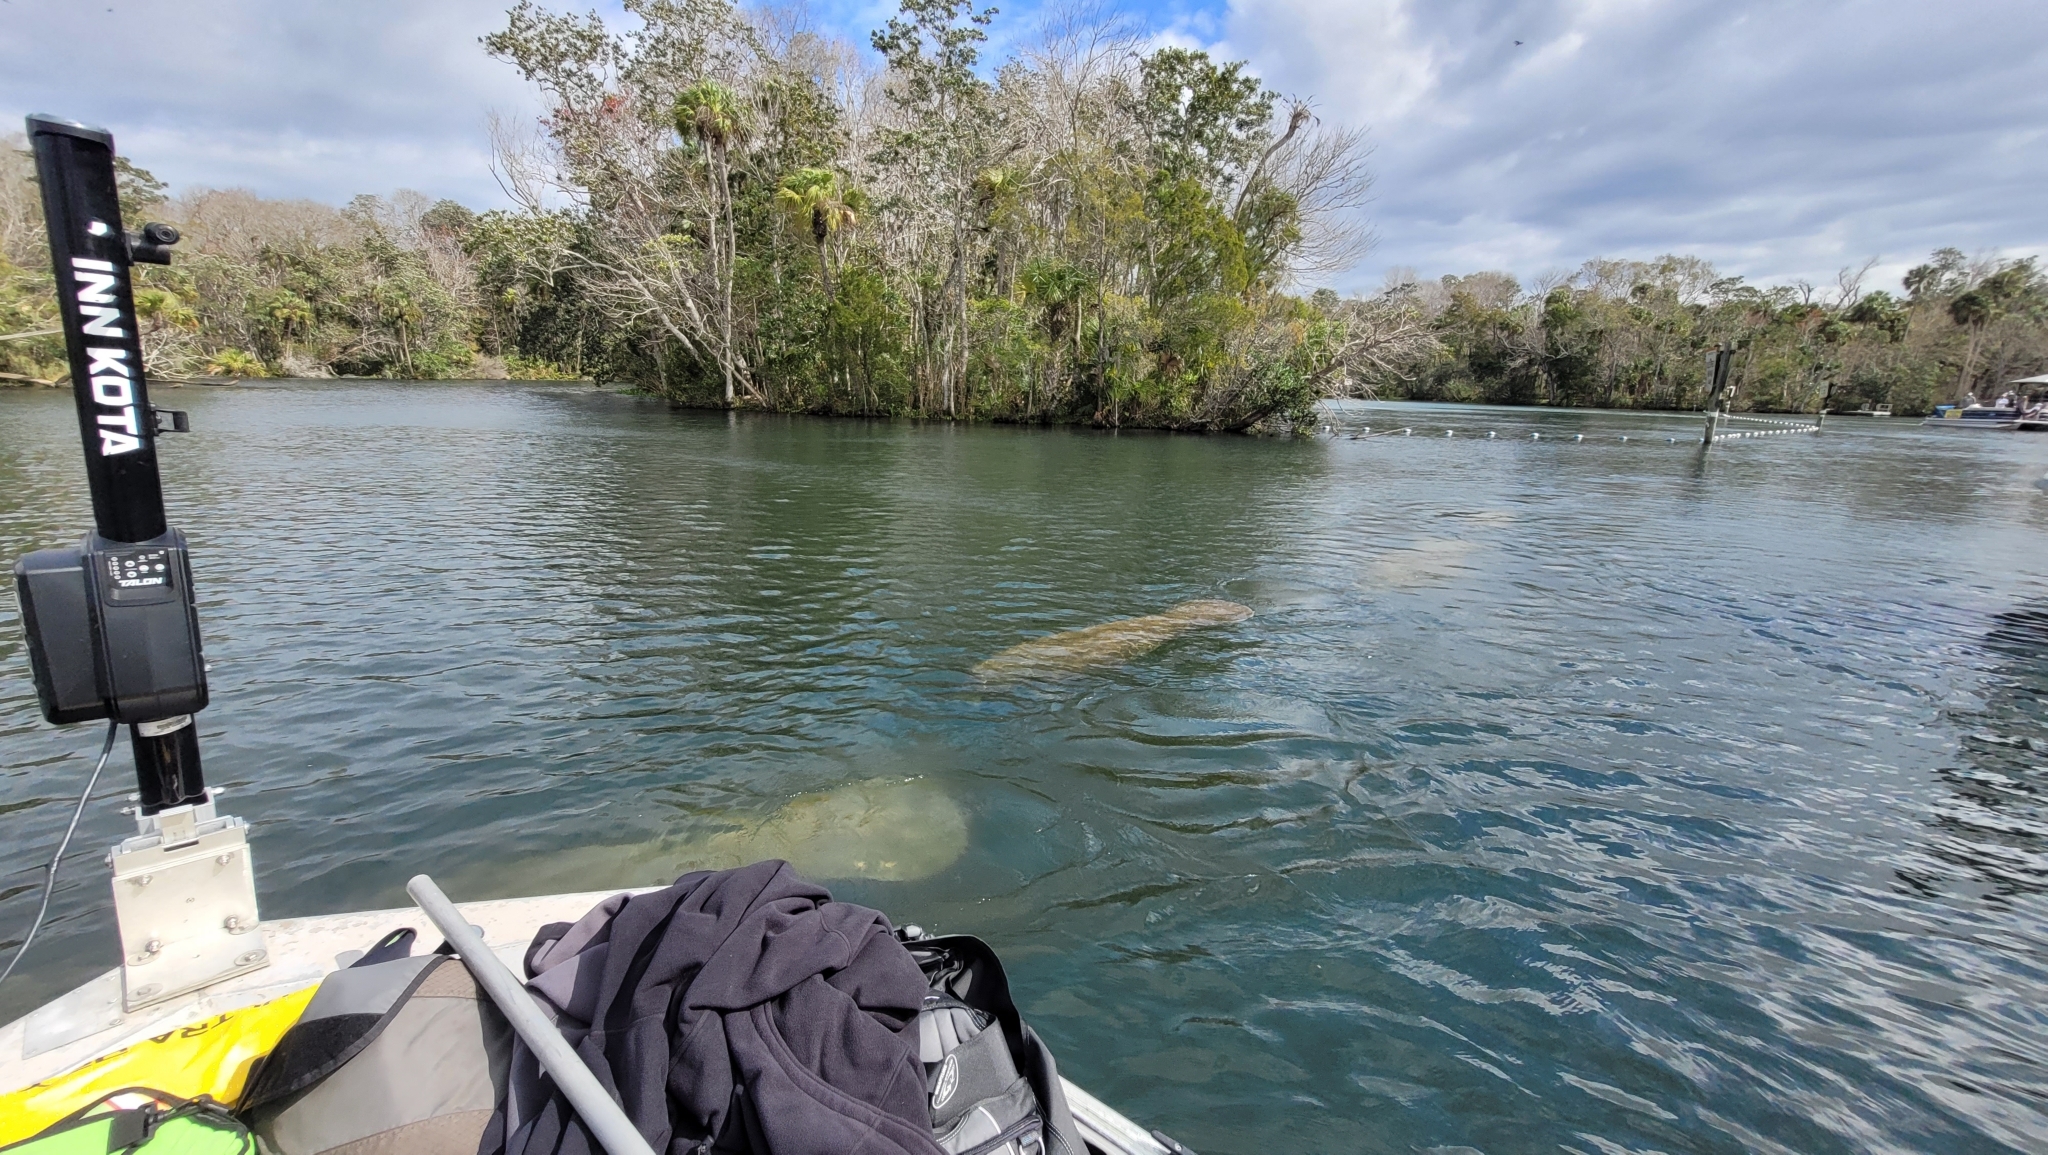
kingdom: Animalia
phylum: Chordata
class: Mammalia
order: Sirenia
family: Trichechidae
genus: Trichechus
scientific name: Trichechus manatus
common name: West indian manatee
